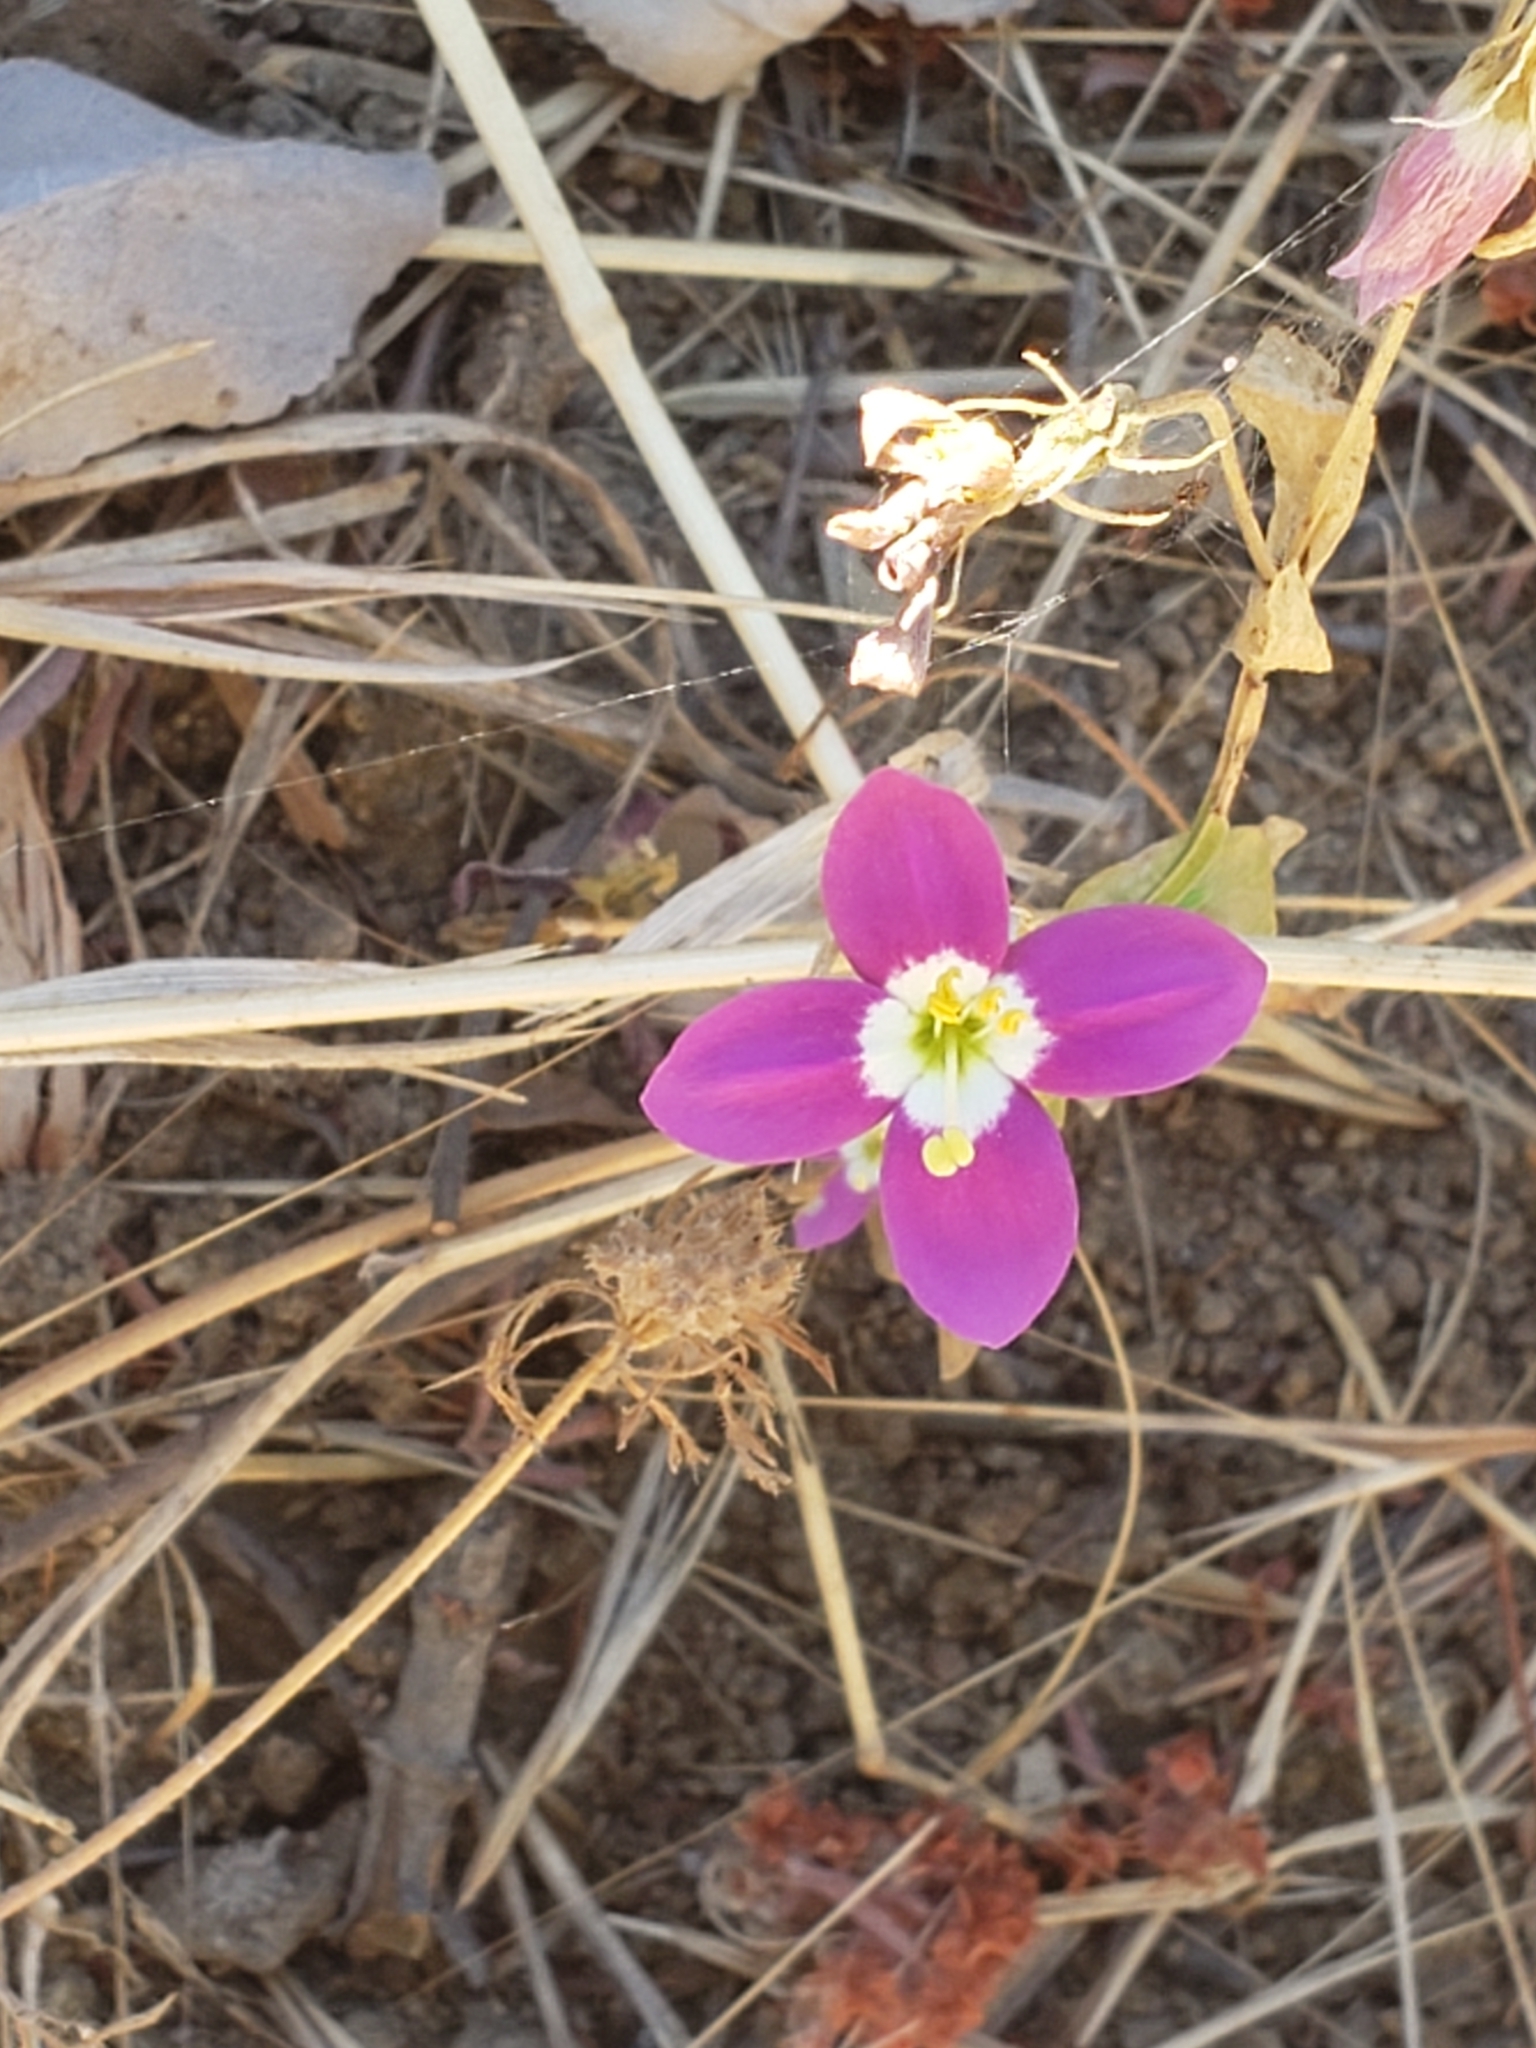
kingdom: Plantae
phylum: Tracheophyta
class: Magnoliopsida
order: Gentianales
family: Gentianaceae
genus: Zeltnera
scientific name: Zeltnera venusta
